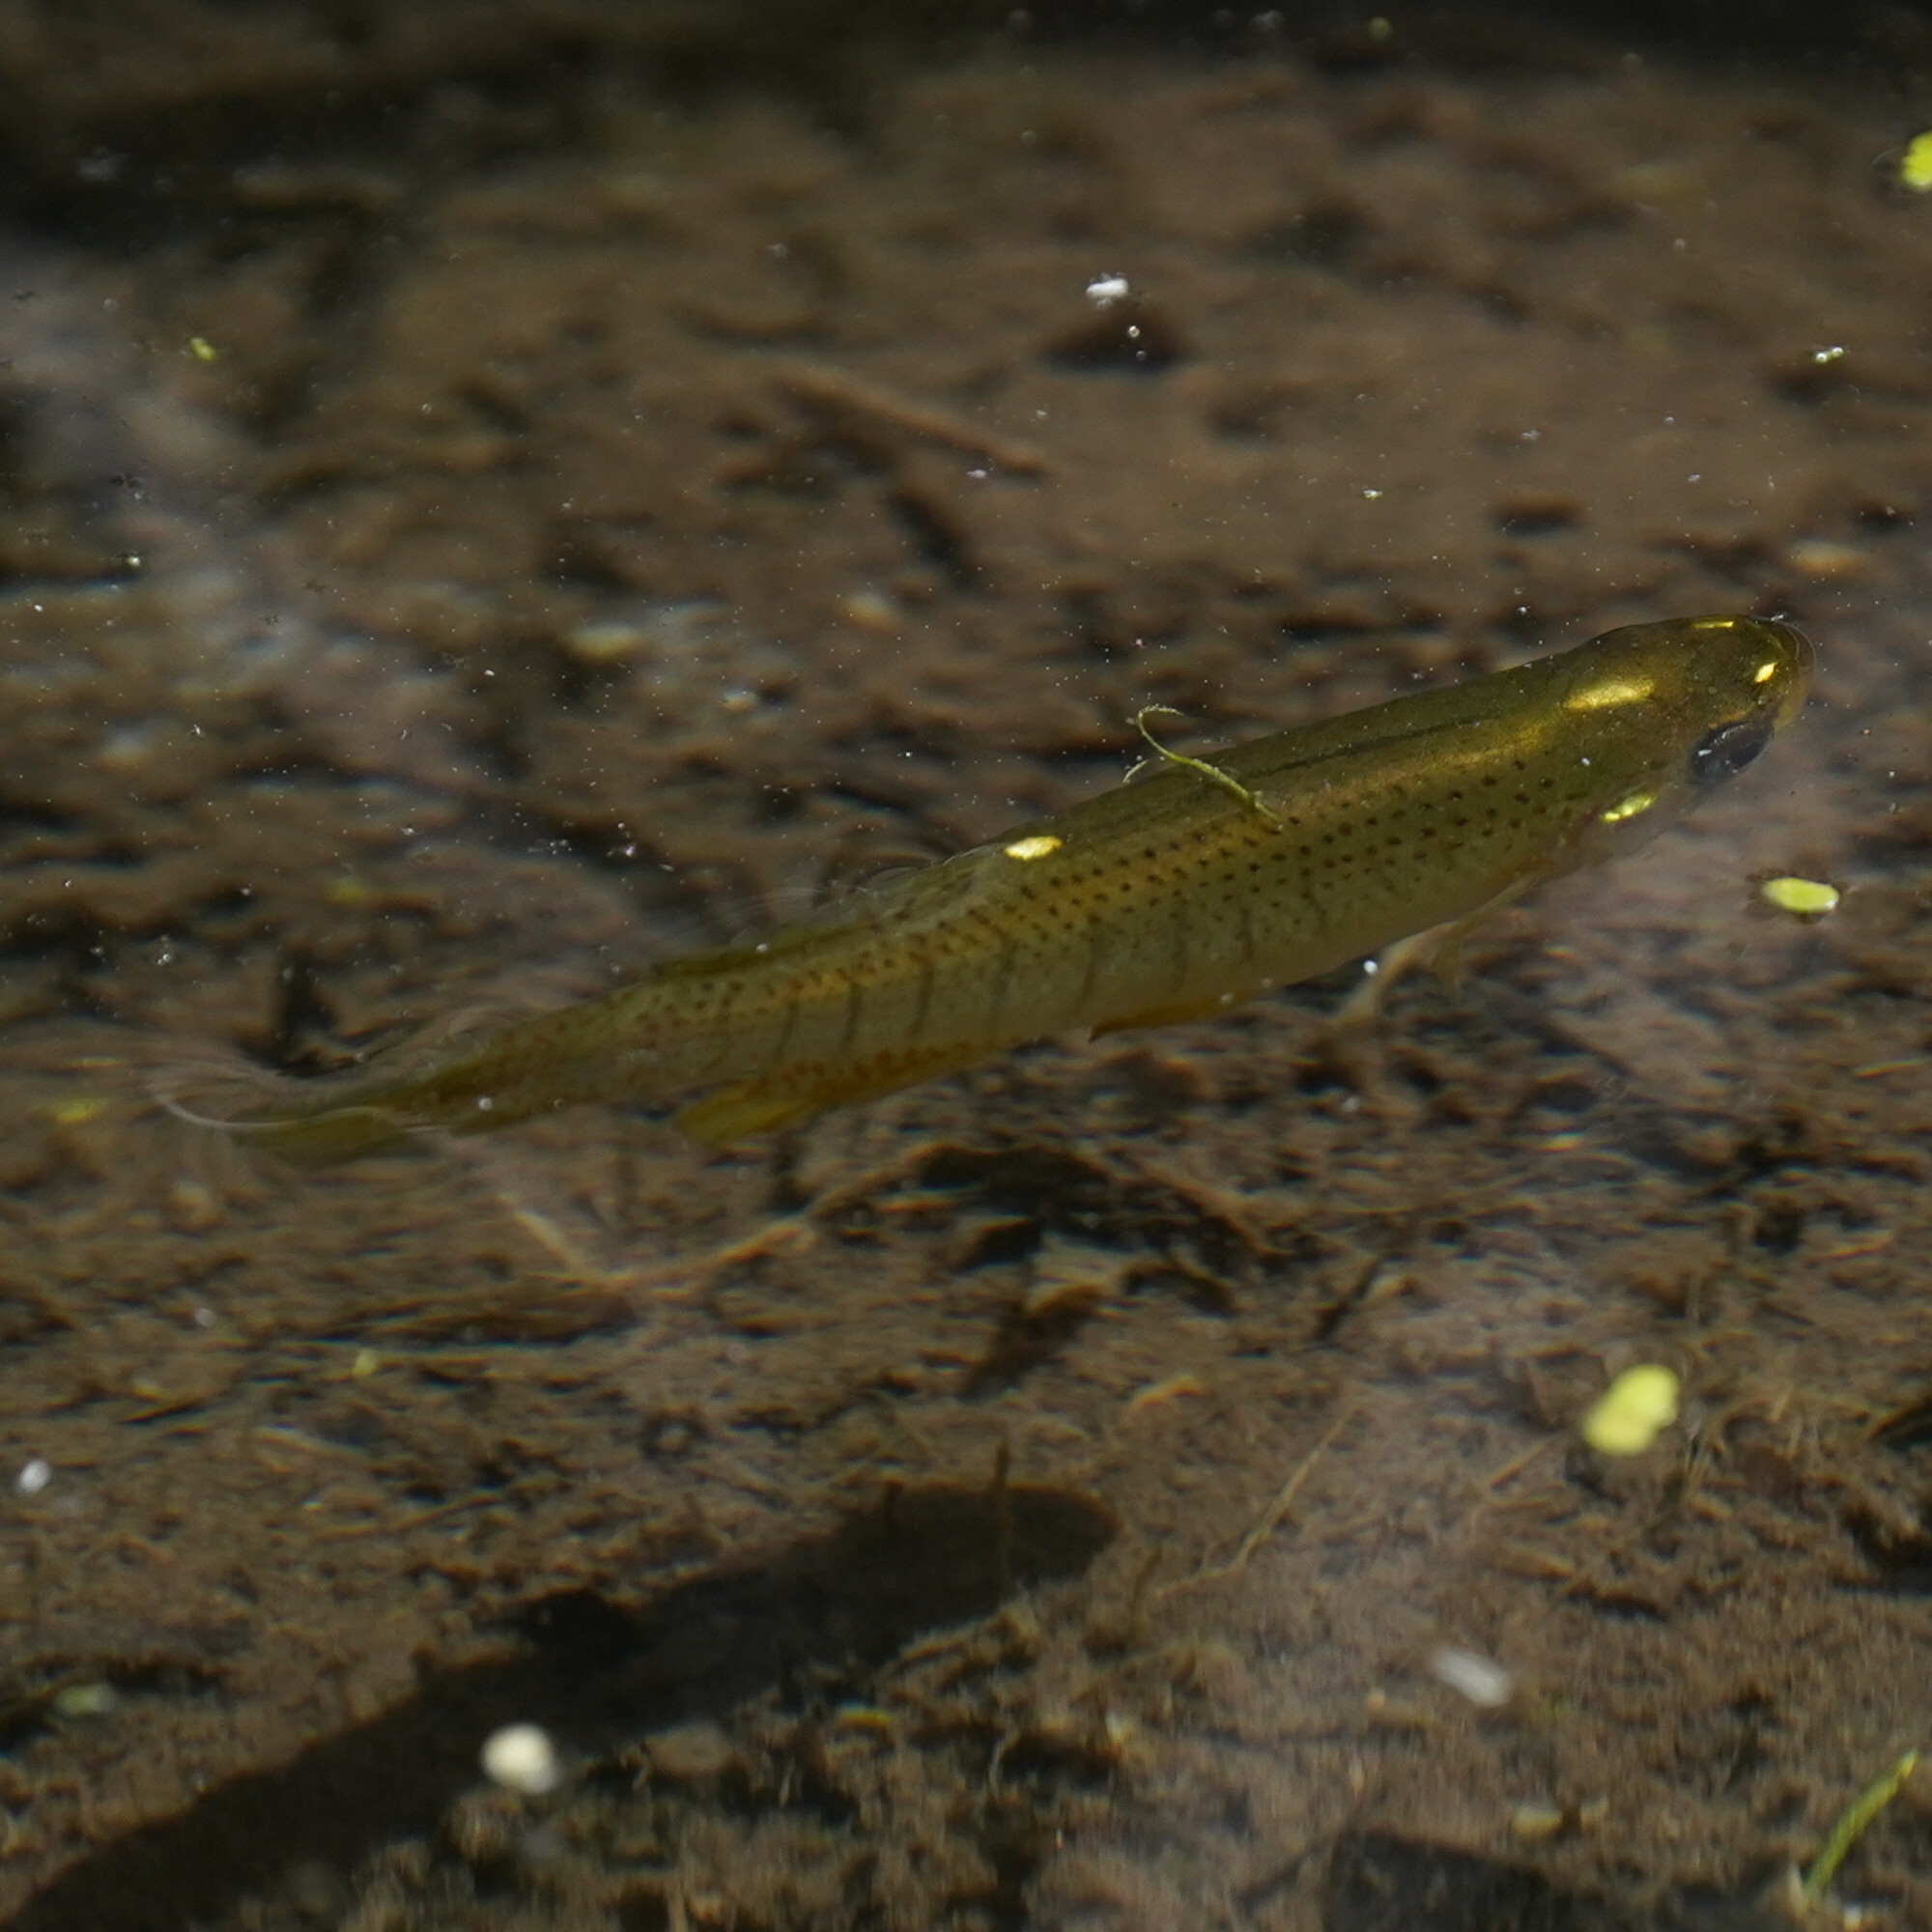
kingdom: Animalia
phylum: Chordata
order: Cyprinodontiformes
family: Fundulidae
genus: Fundulus
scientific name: Fundulus dispar
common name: Starhead topminnow
